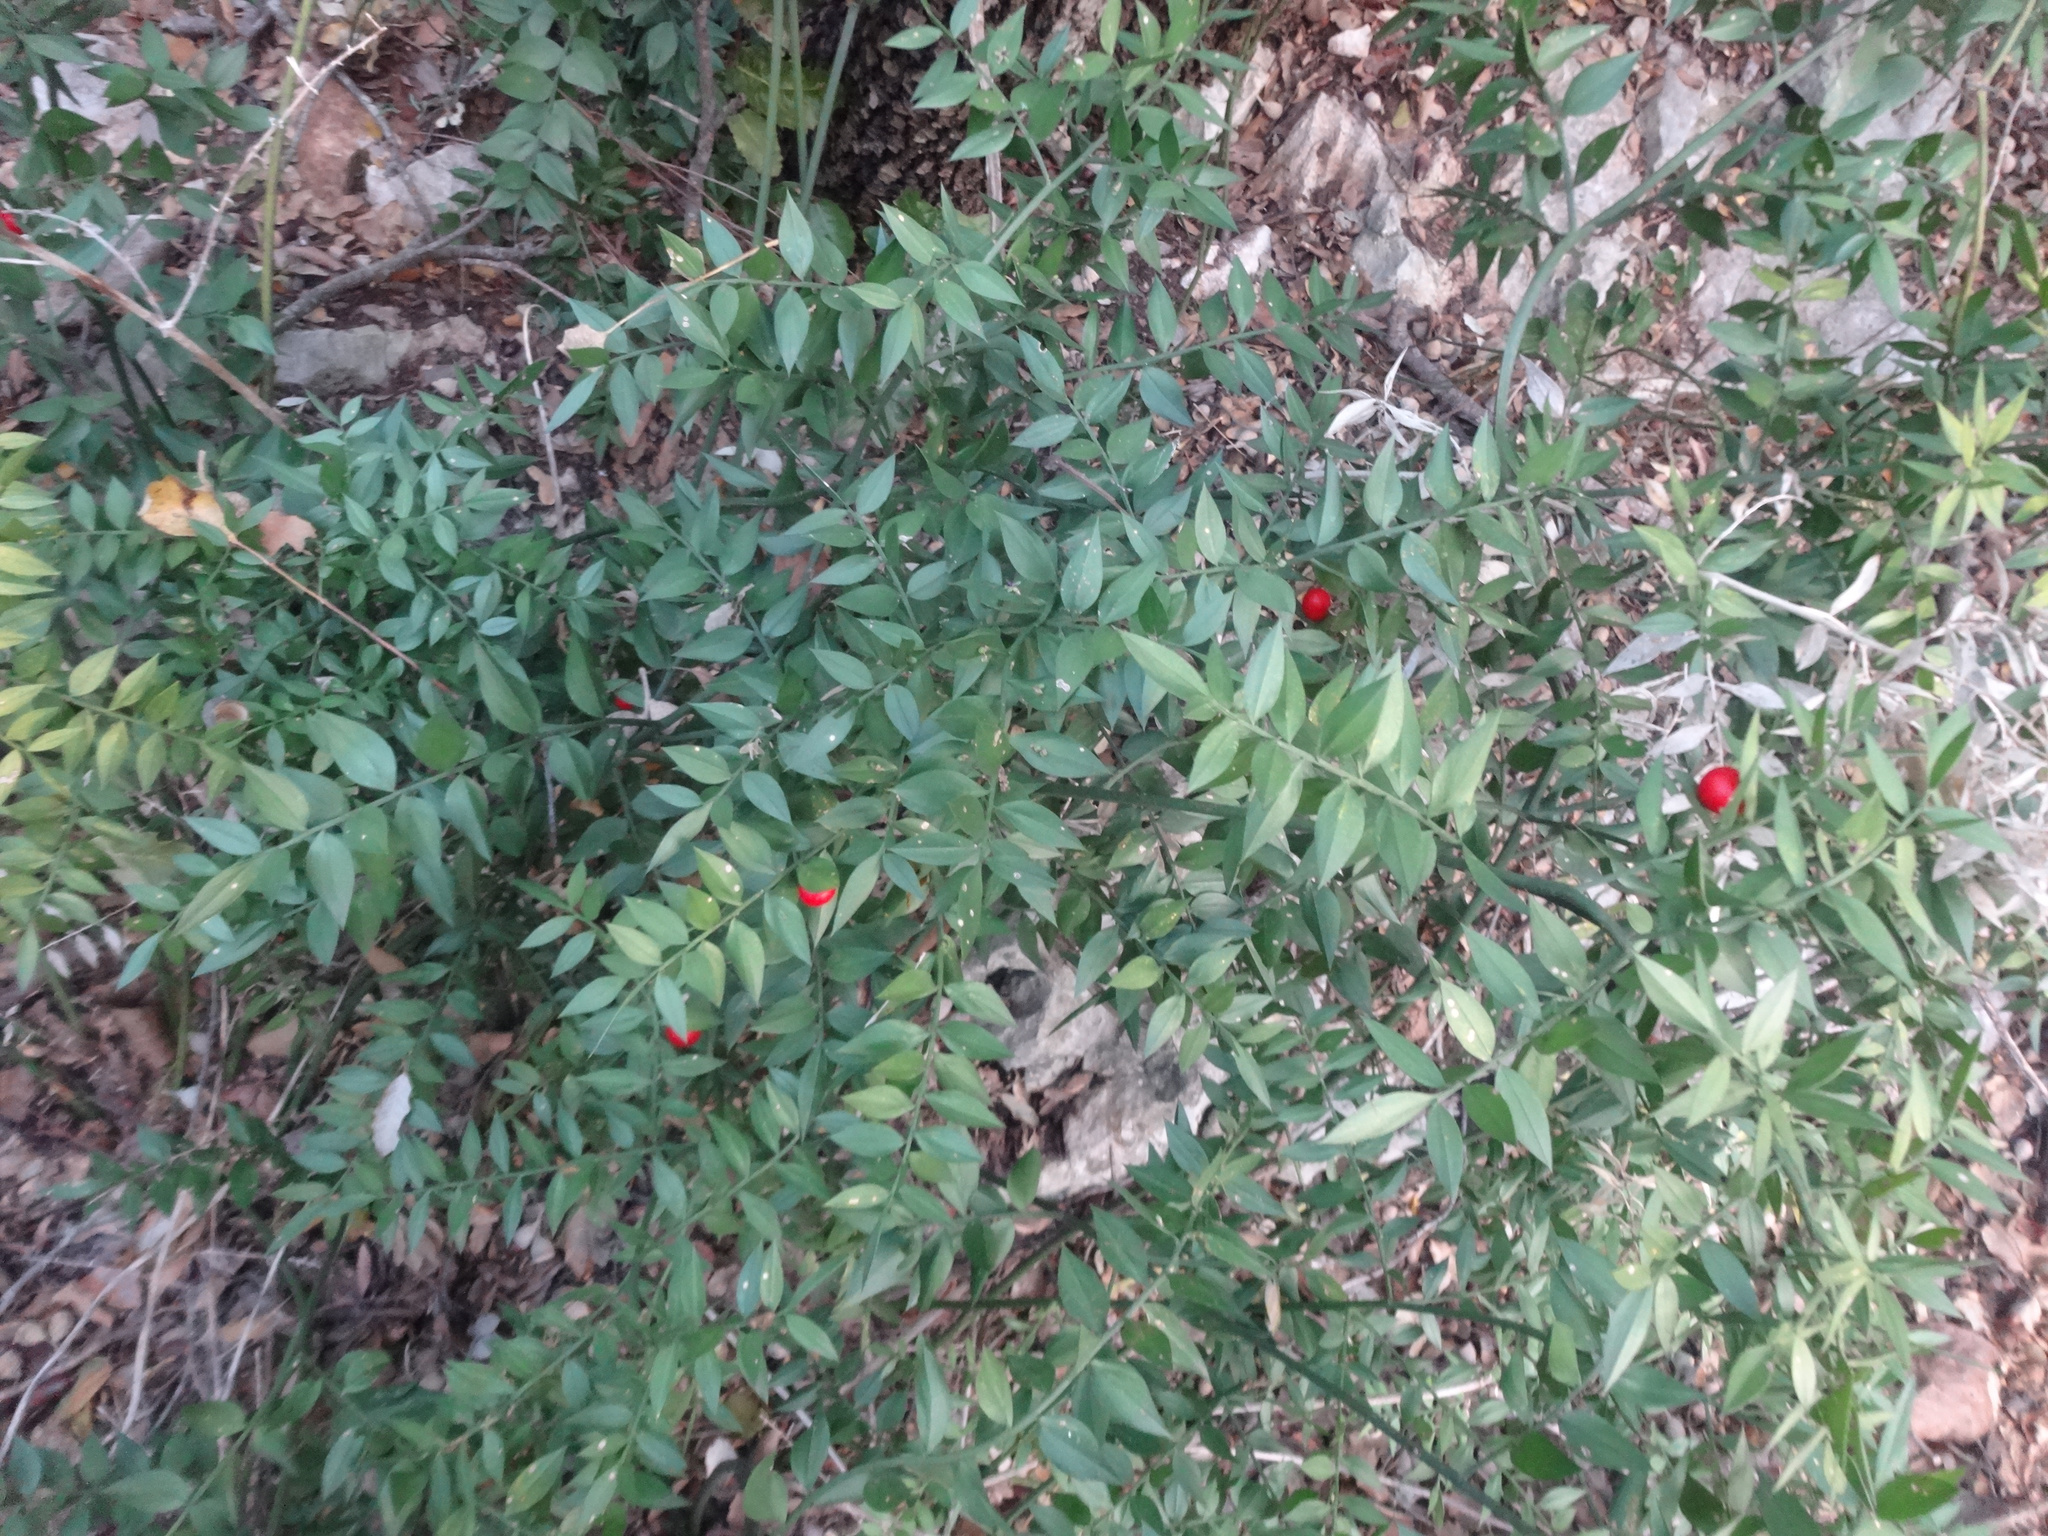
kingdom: Plantae
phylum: Tracheophyta
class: Liliopsida
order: Asparagales
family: Asparagaceae
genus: Ruscus
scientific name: Ruscus aculeatus
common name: Butcher's-broom
